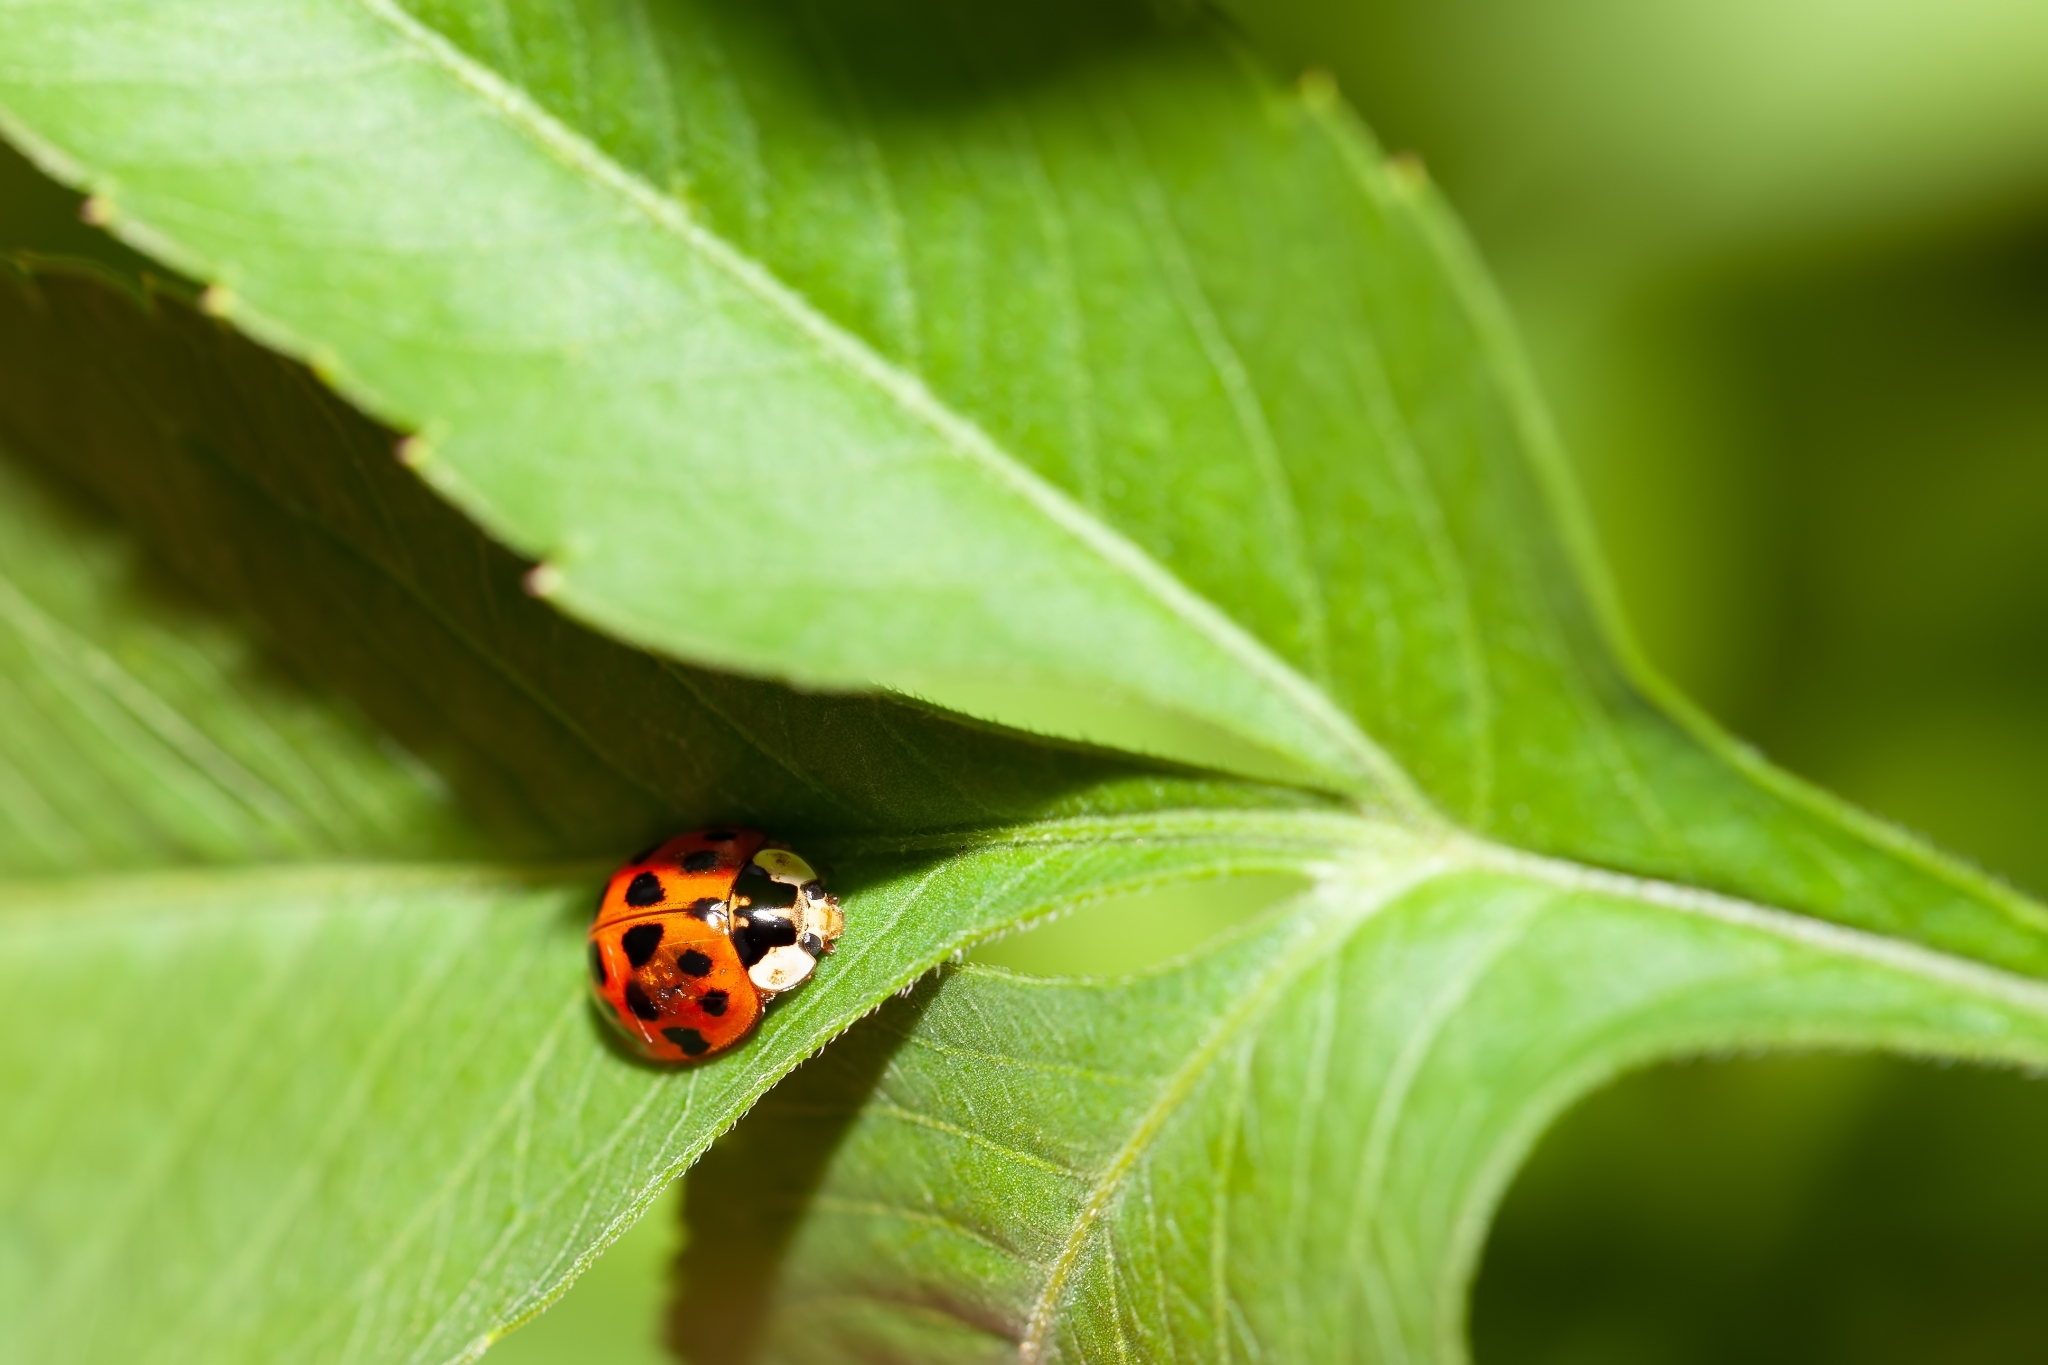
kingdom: Animalia
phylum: Arthropoda
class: Insecta
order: Coleoptera
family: Coccinellidae
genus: Harmonia
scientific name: Harmonia axyridis
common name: Harlequin ladybird
